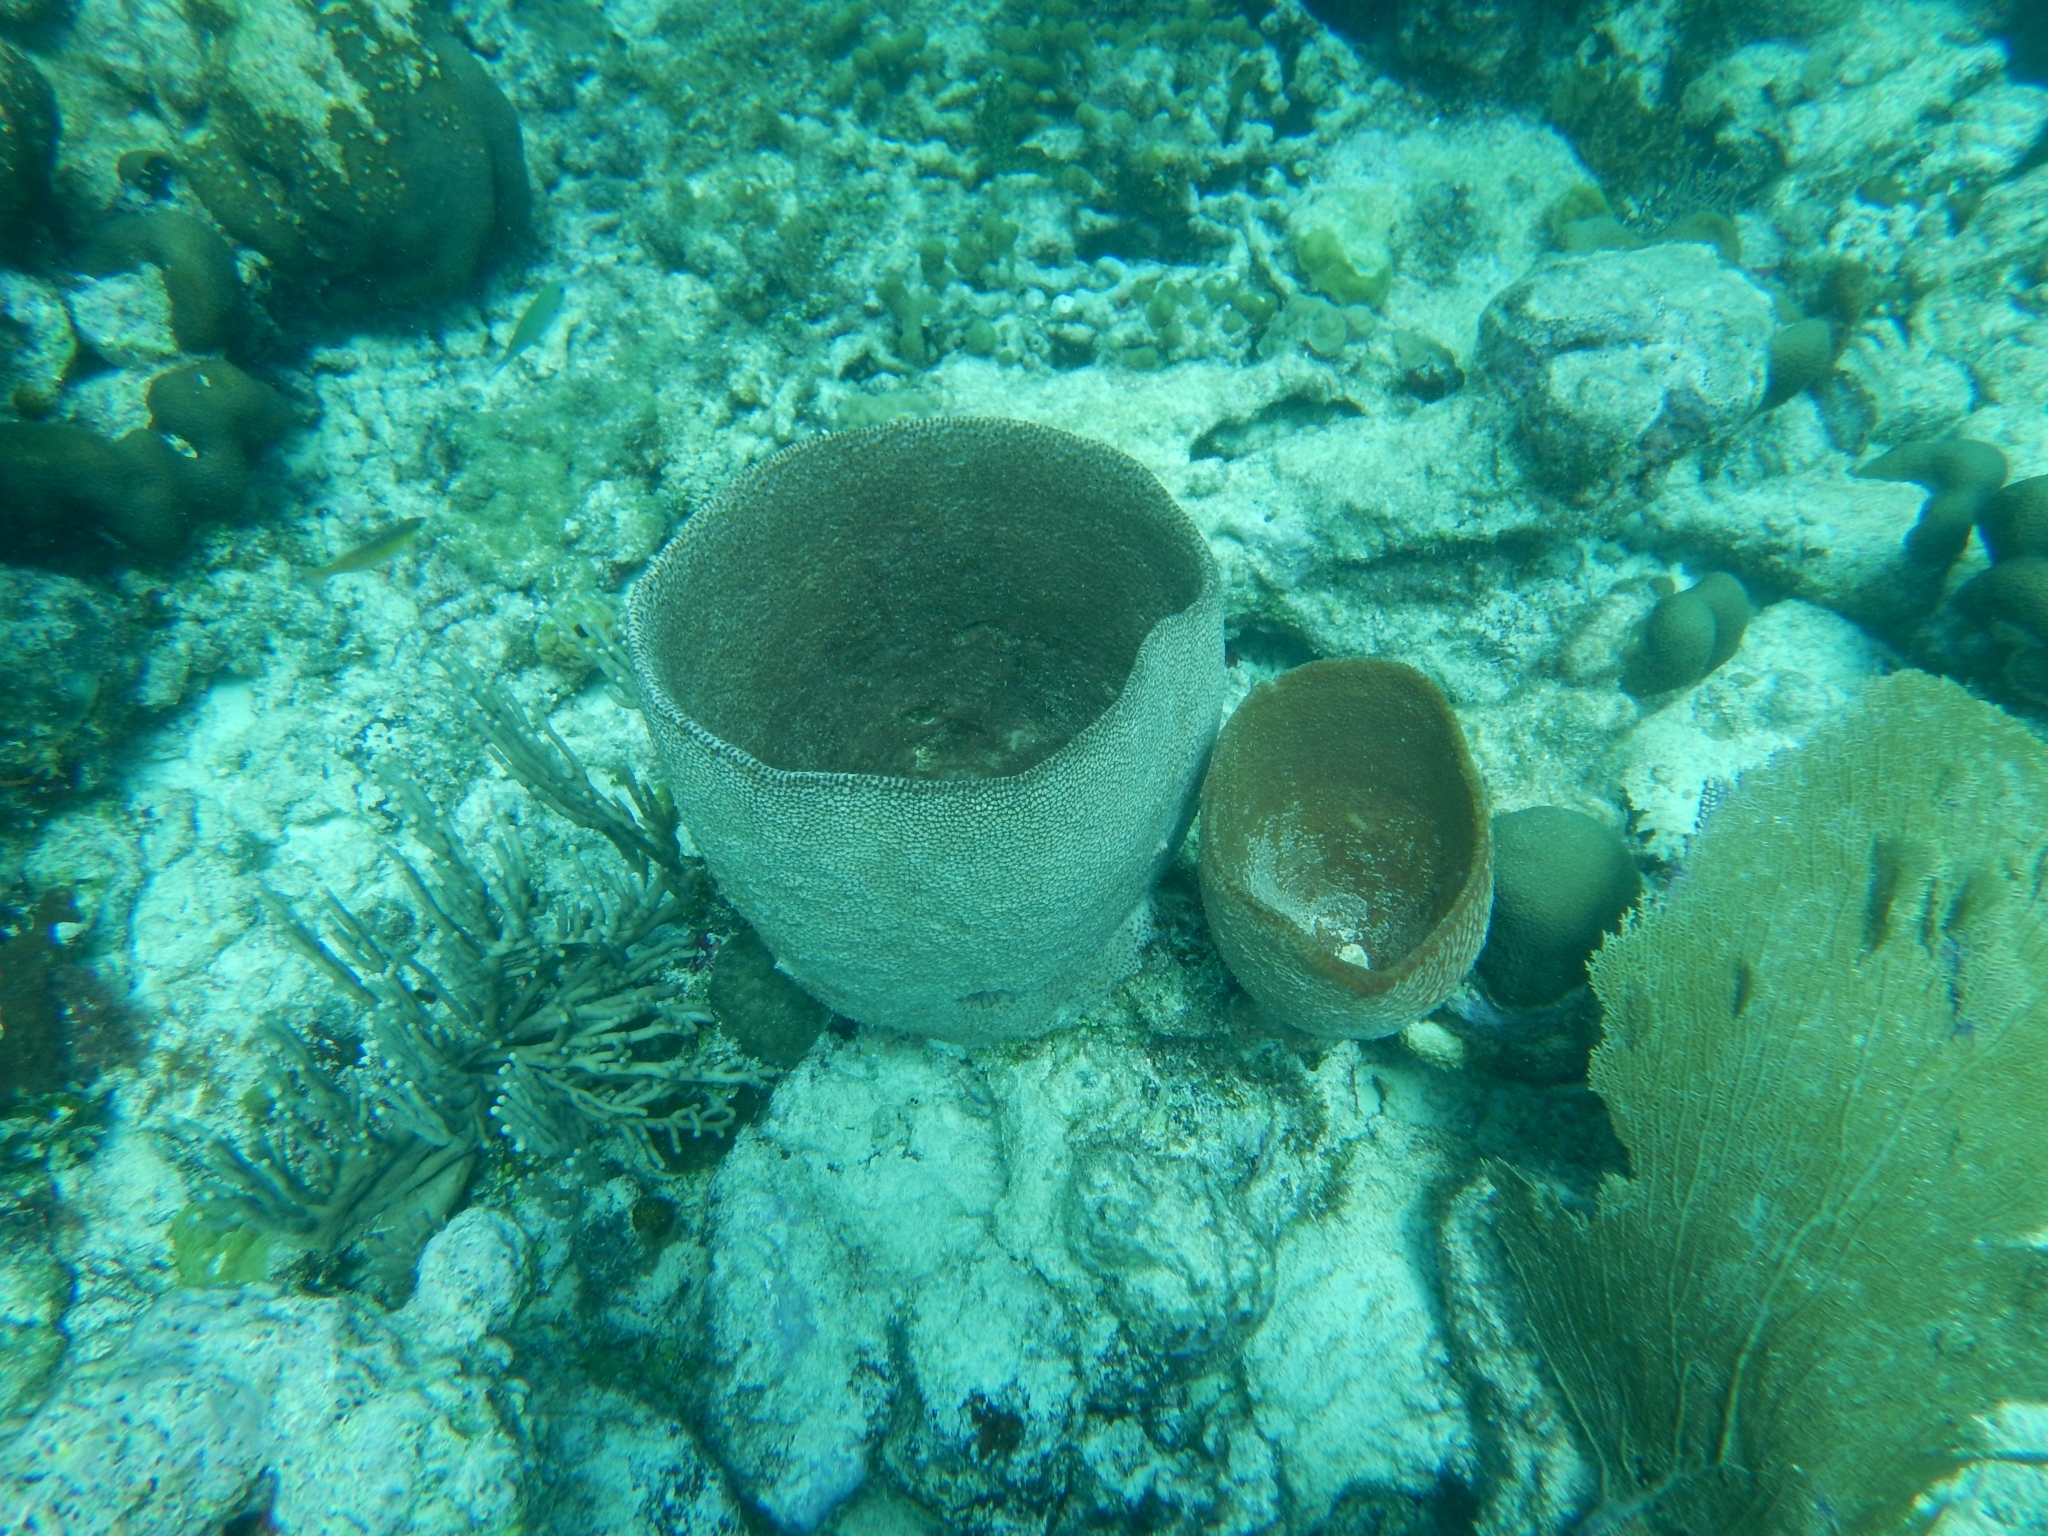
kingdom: Animalia
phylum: Porifera
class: Demospongiae
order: Dictyoceratida
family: Irciniidae
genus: Ircinia
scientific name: Ircinia campana
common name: Vase sponge
